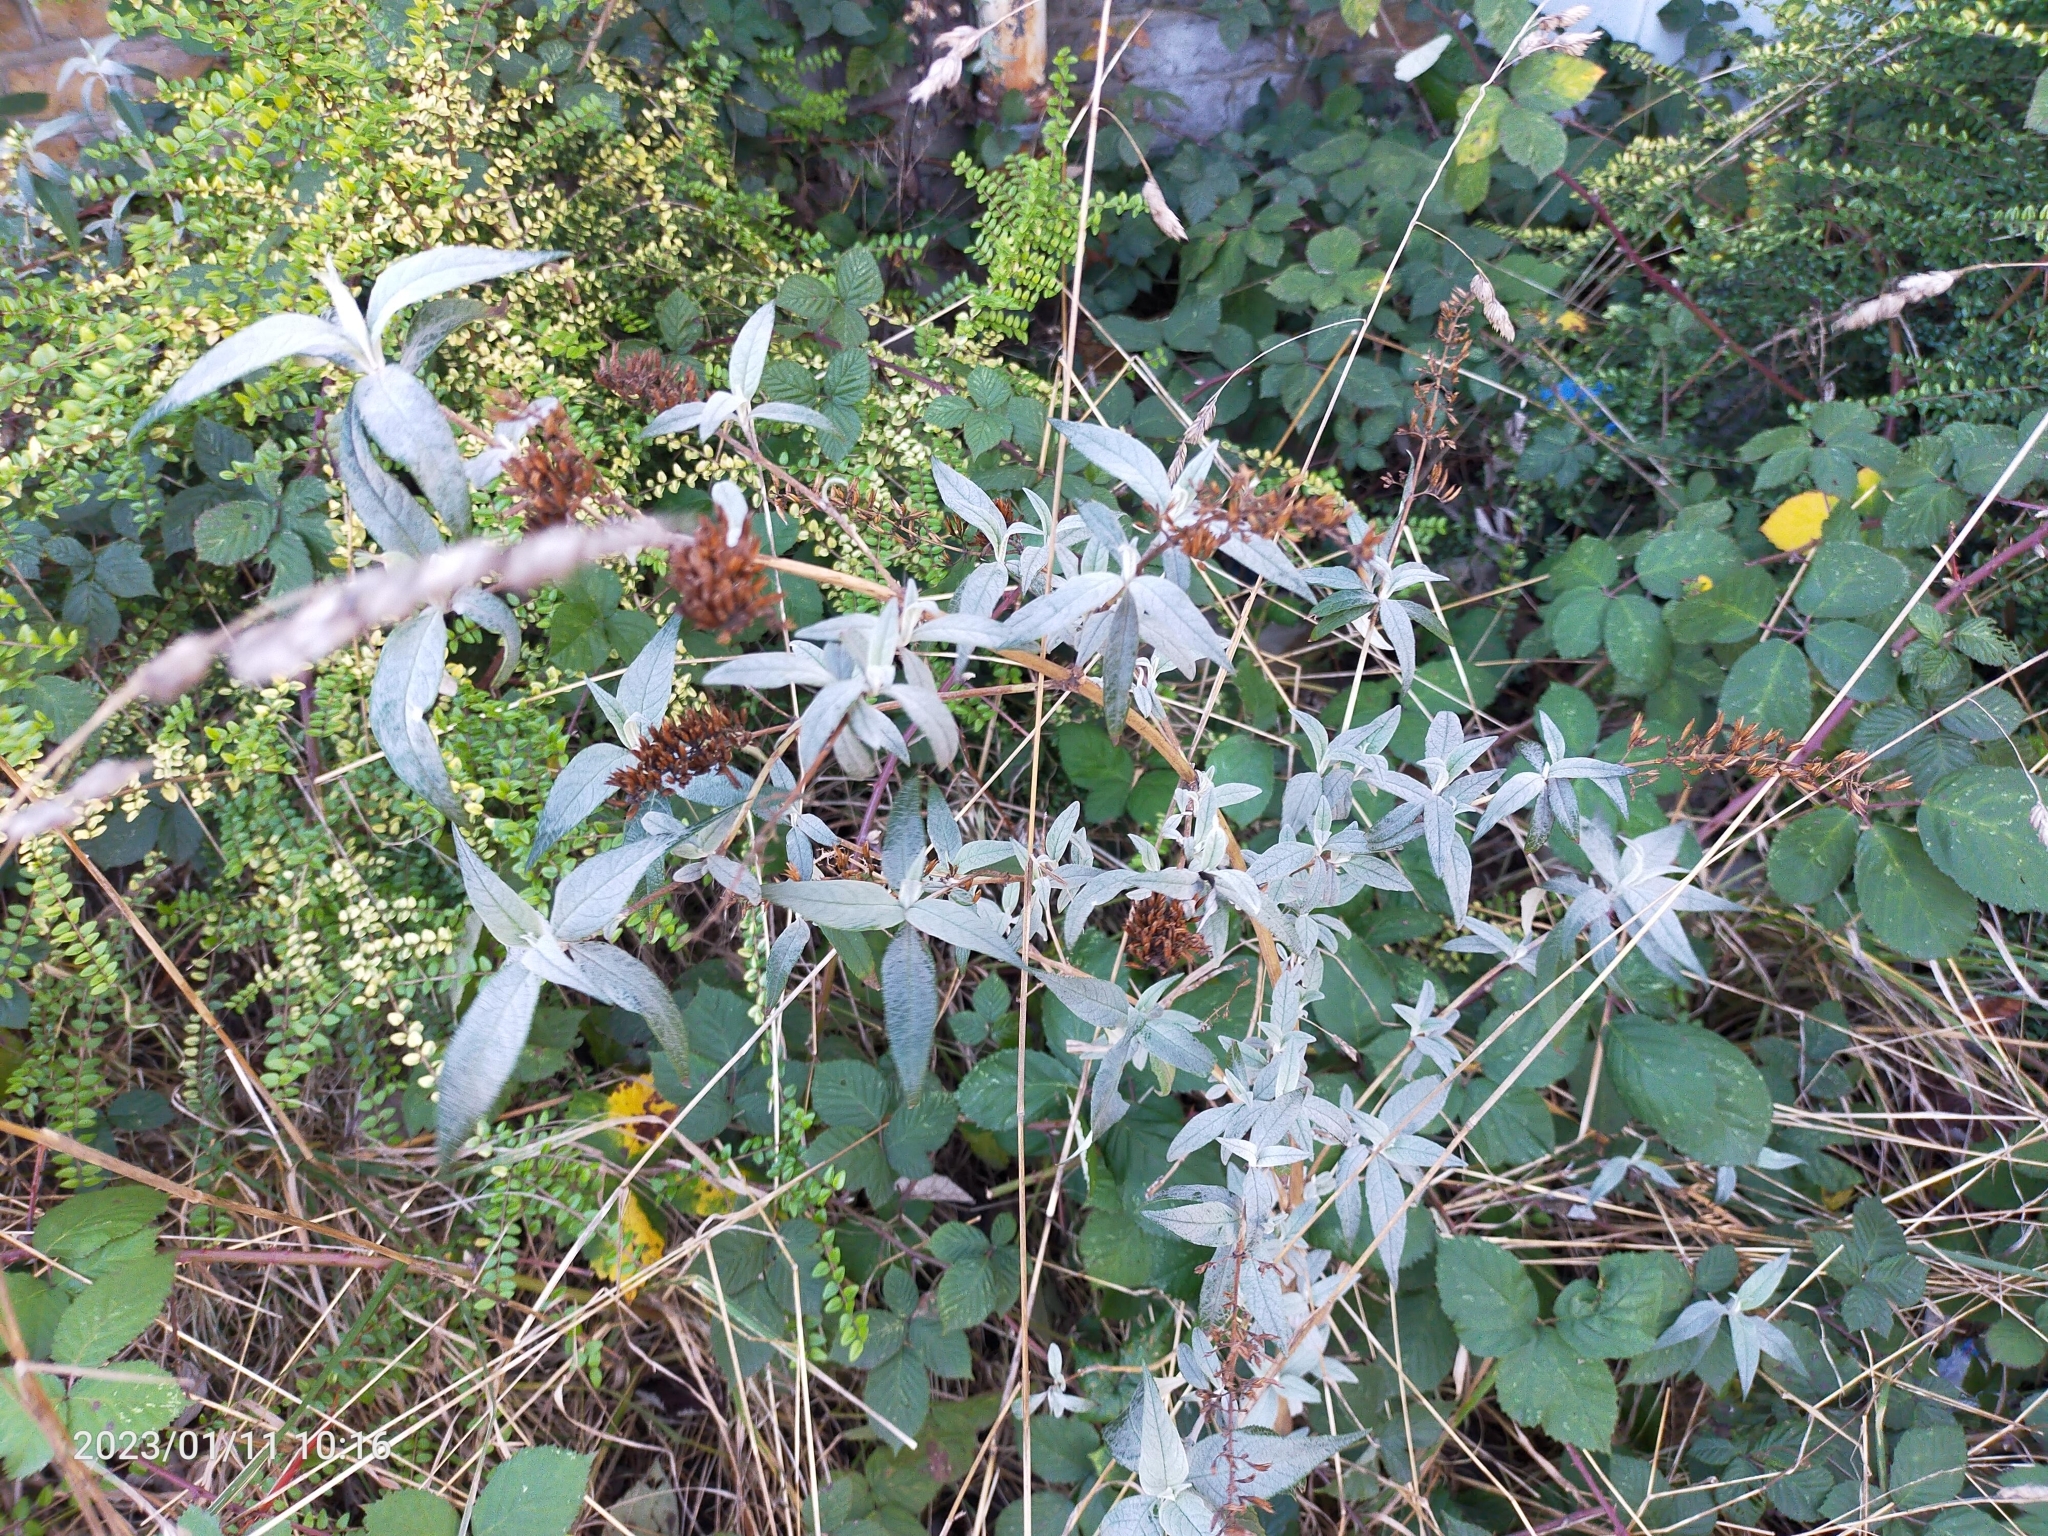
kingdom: Plantae
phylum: Tracheophyta
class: Magnoliopsida
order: Lamiales
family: Scrophulariaceae
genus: Buddleja
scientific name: Buddleja davidii
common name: Butterfly-bush
